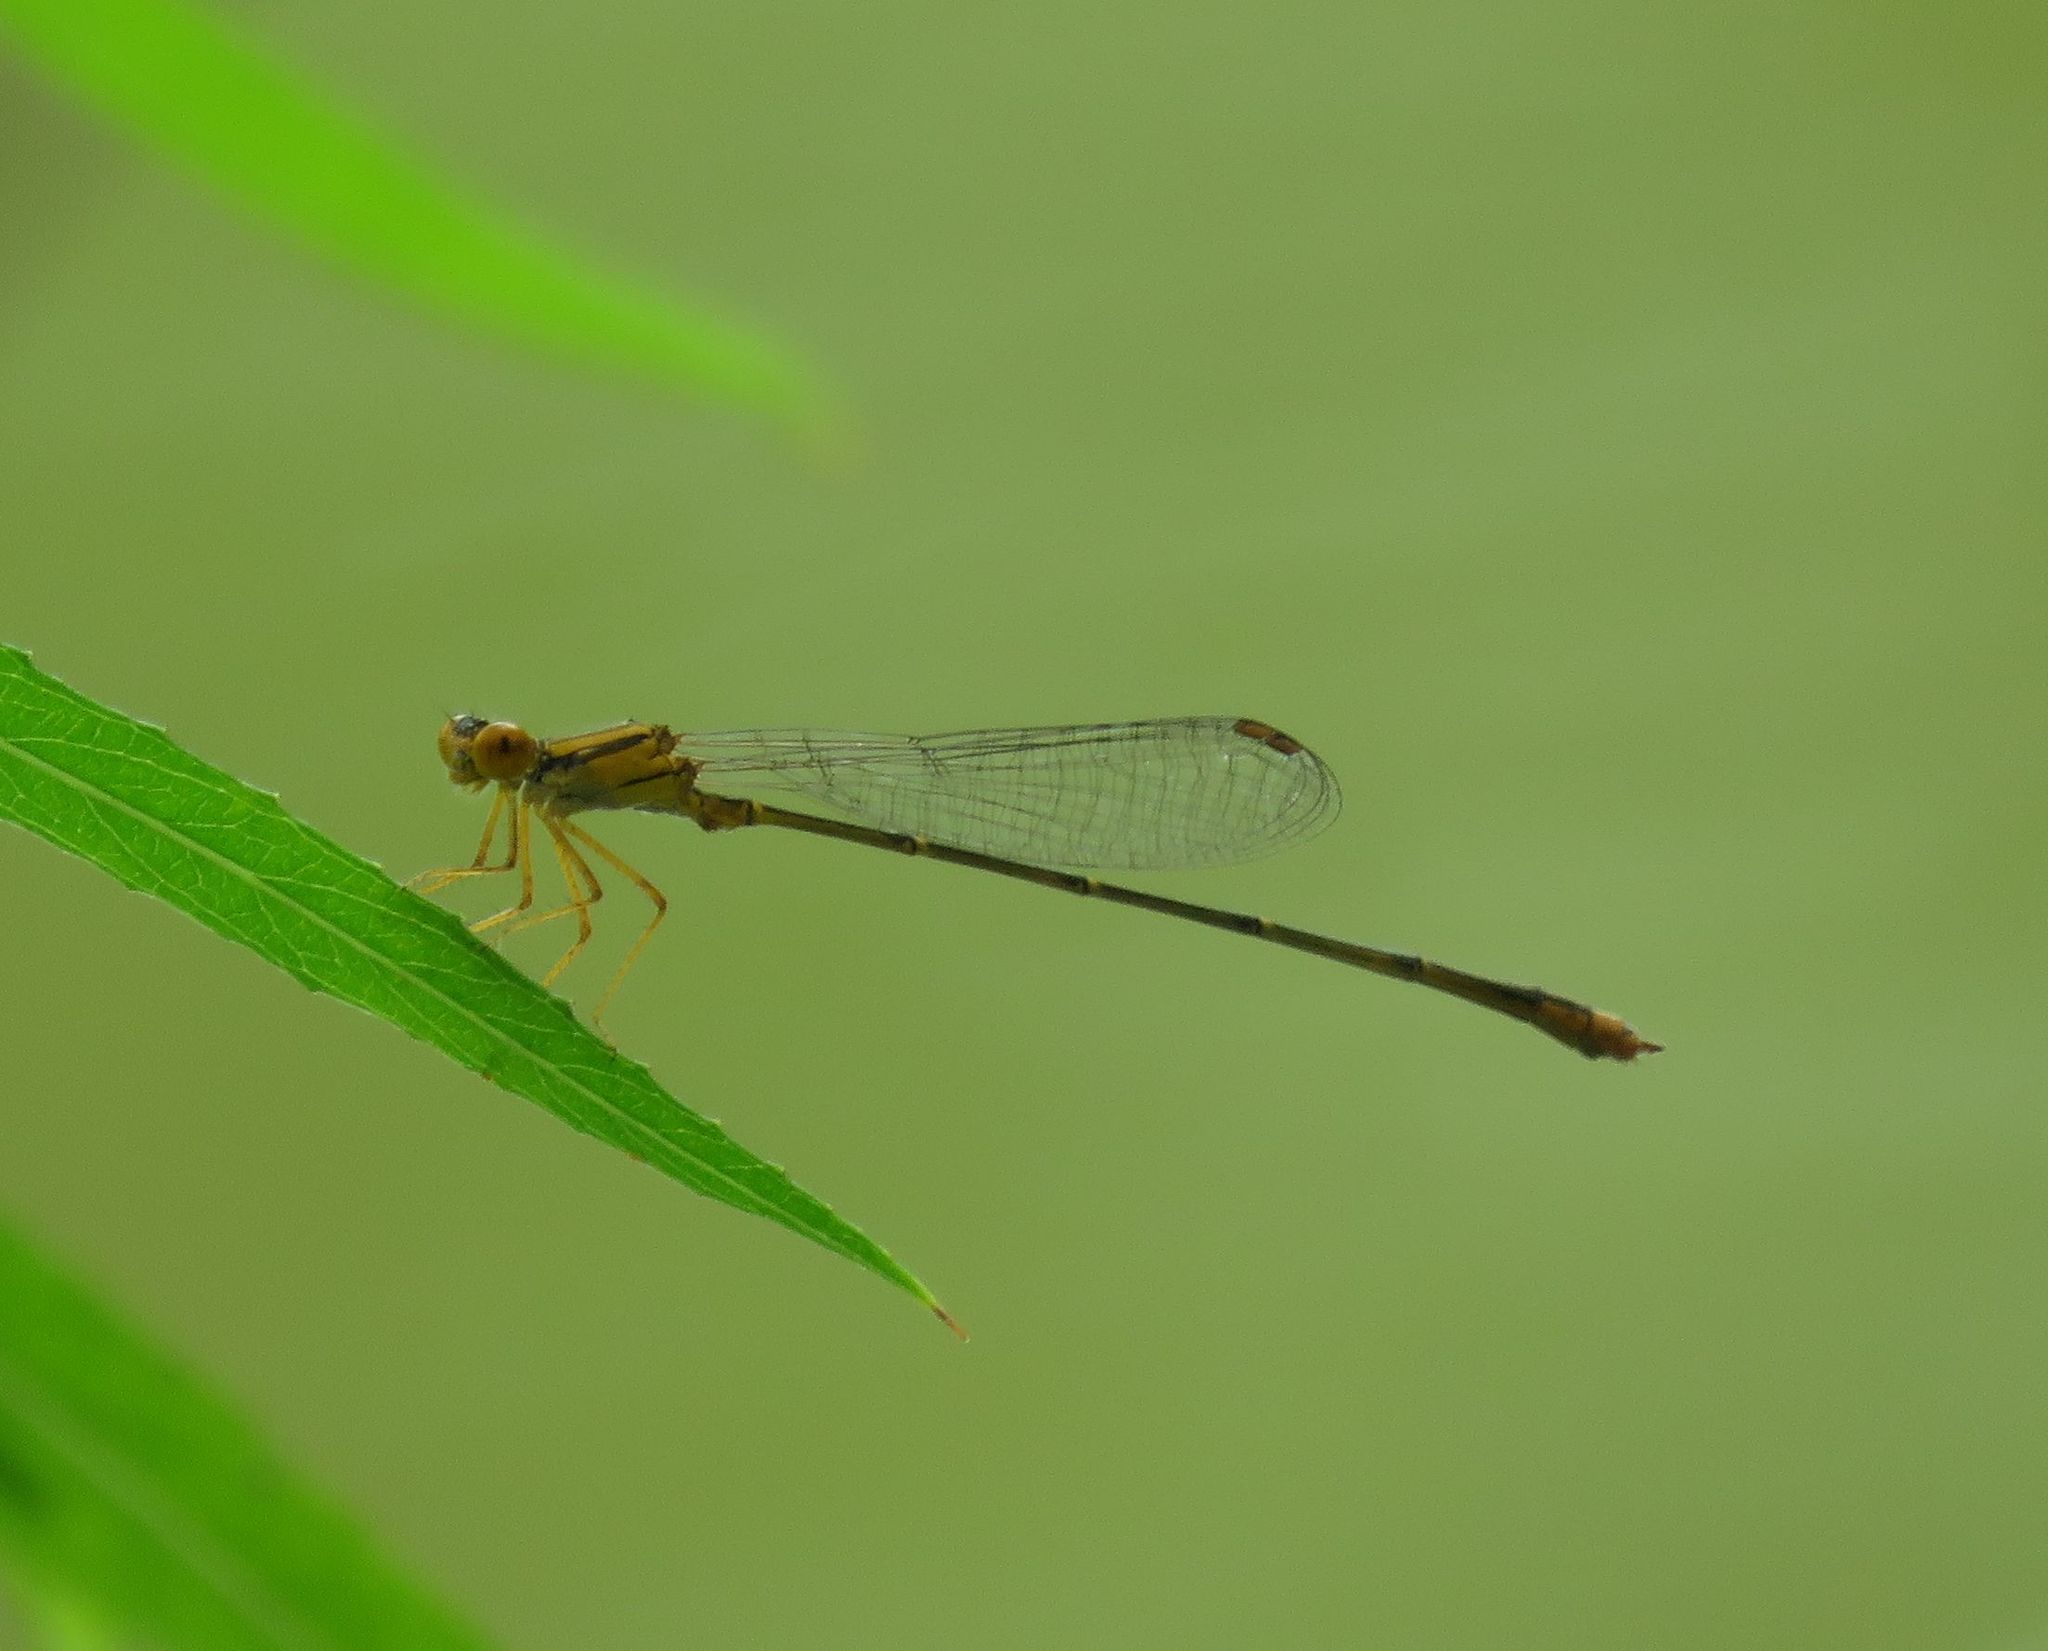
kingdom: Animalia
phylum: Arthropoda
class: Insecta
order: Odonata
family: Coenagrionidae
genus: Enallagma
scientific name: Enallagma signatum
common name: Orange bluet
